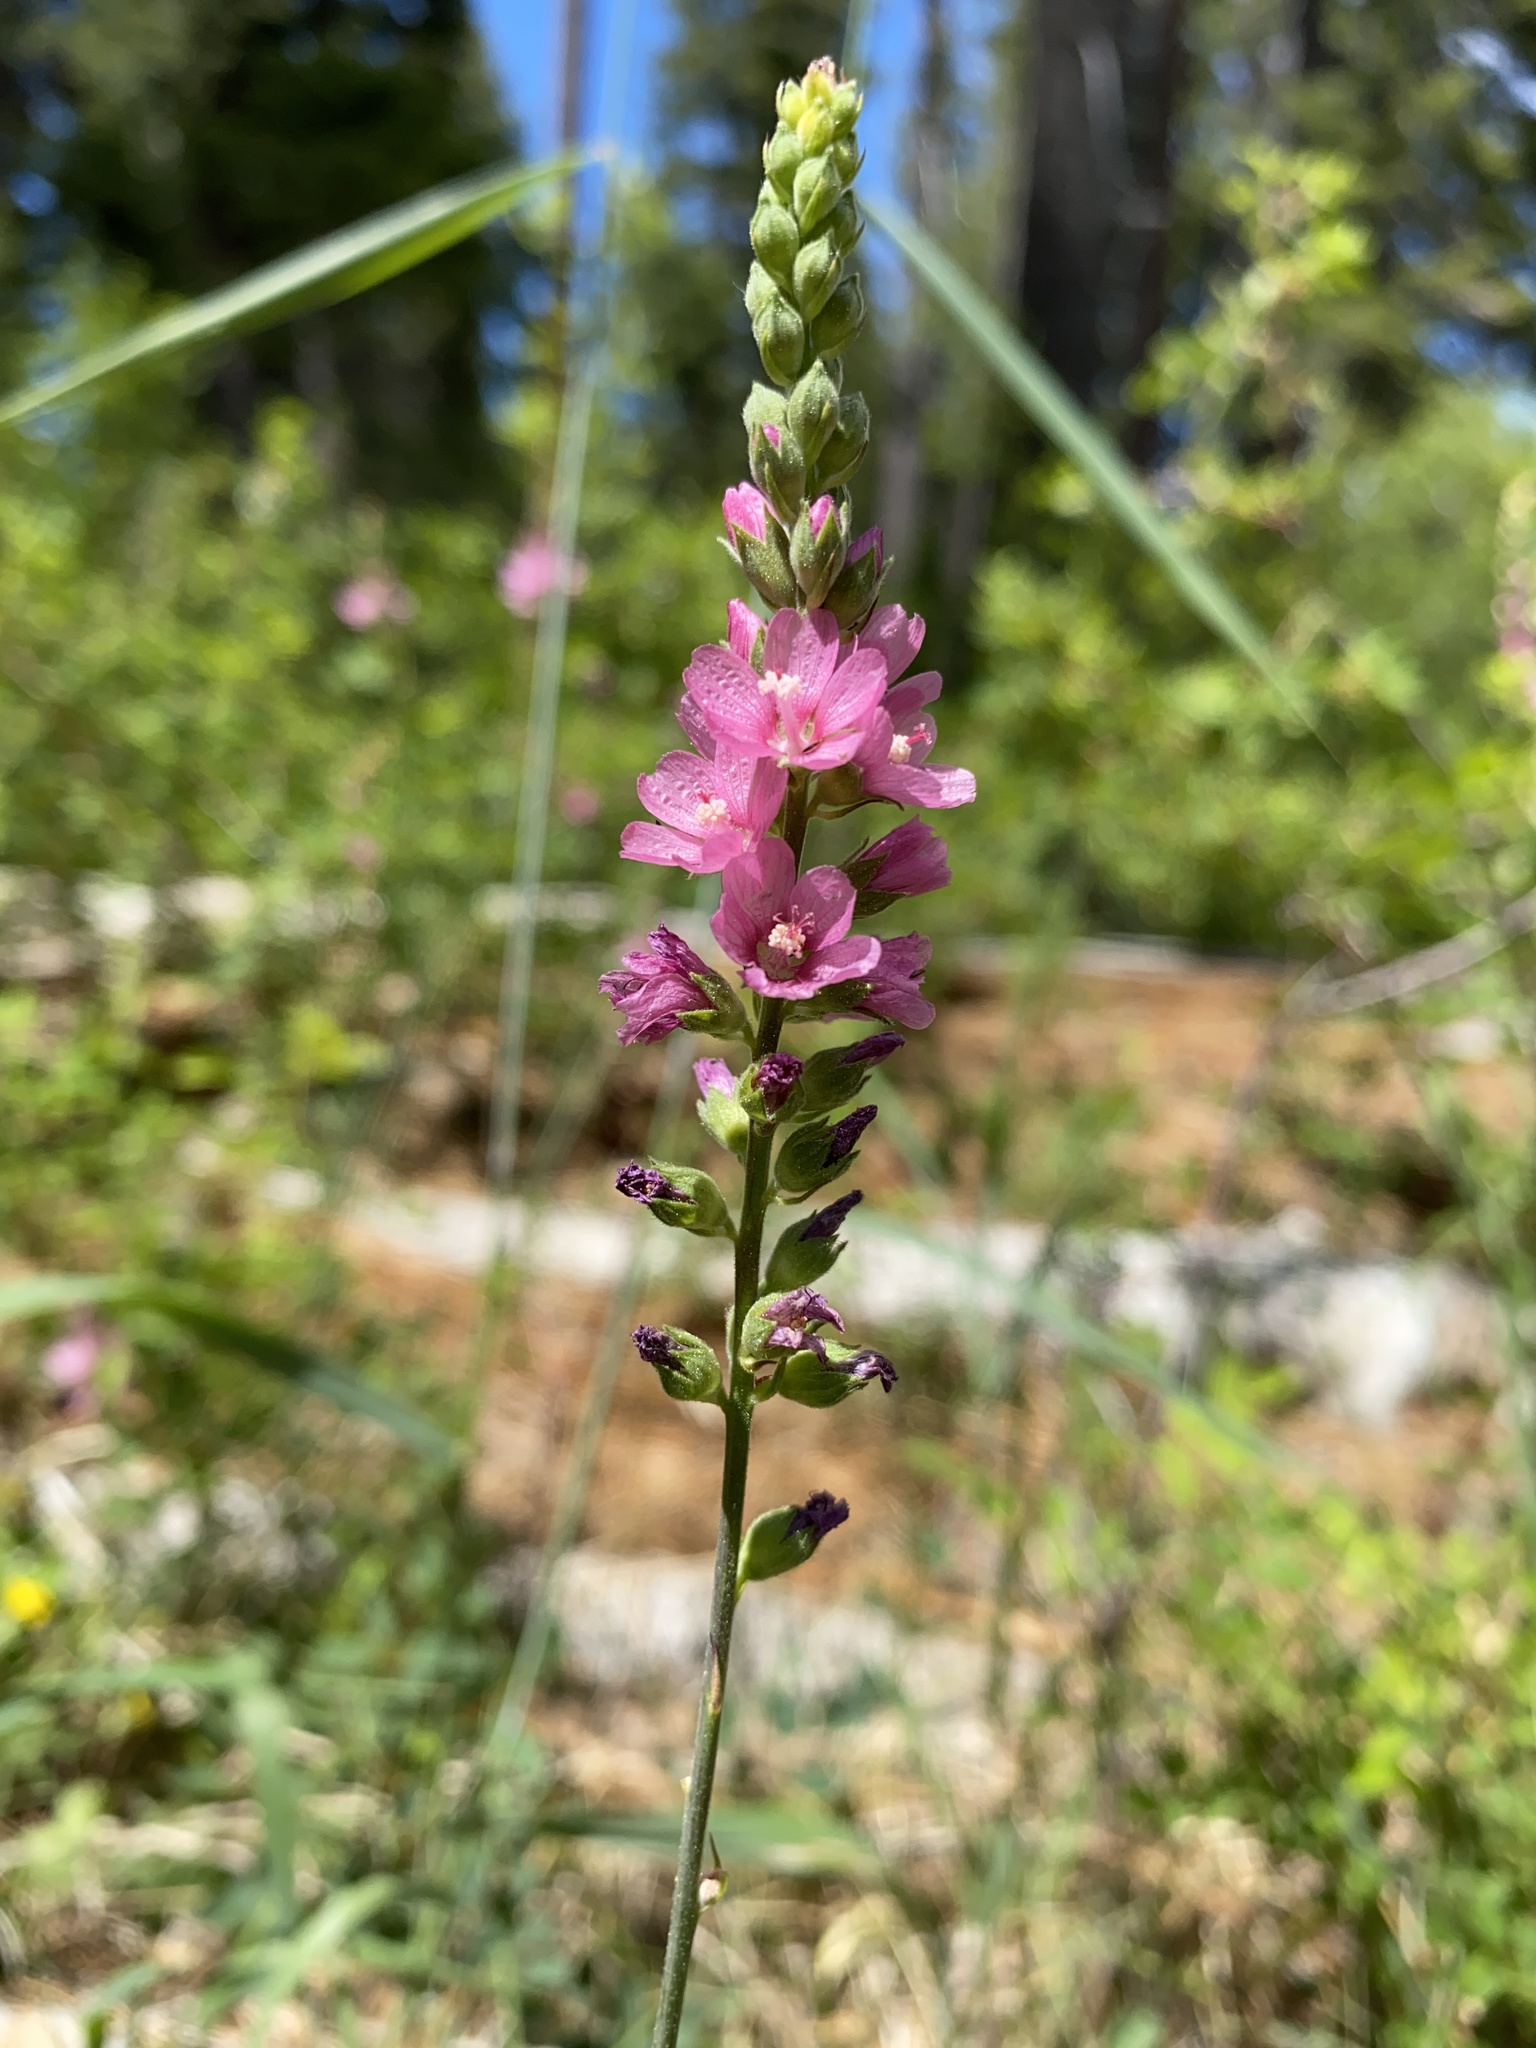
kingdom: Plantae
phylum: Tracheophyta
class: Magnoliopsida
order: Malvales
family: Malvaceae
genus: Sidalcea
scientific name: Sidalcea oregana
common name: Oregon checker-mallow
